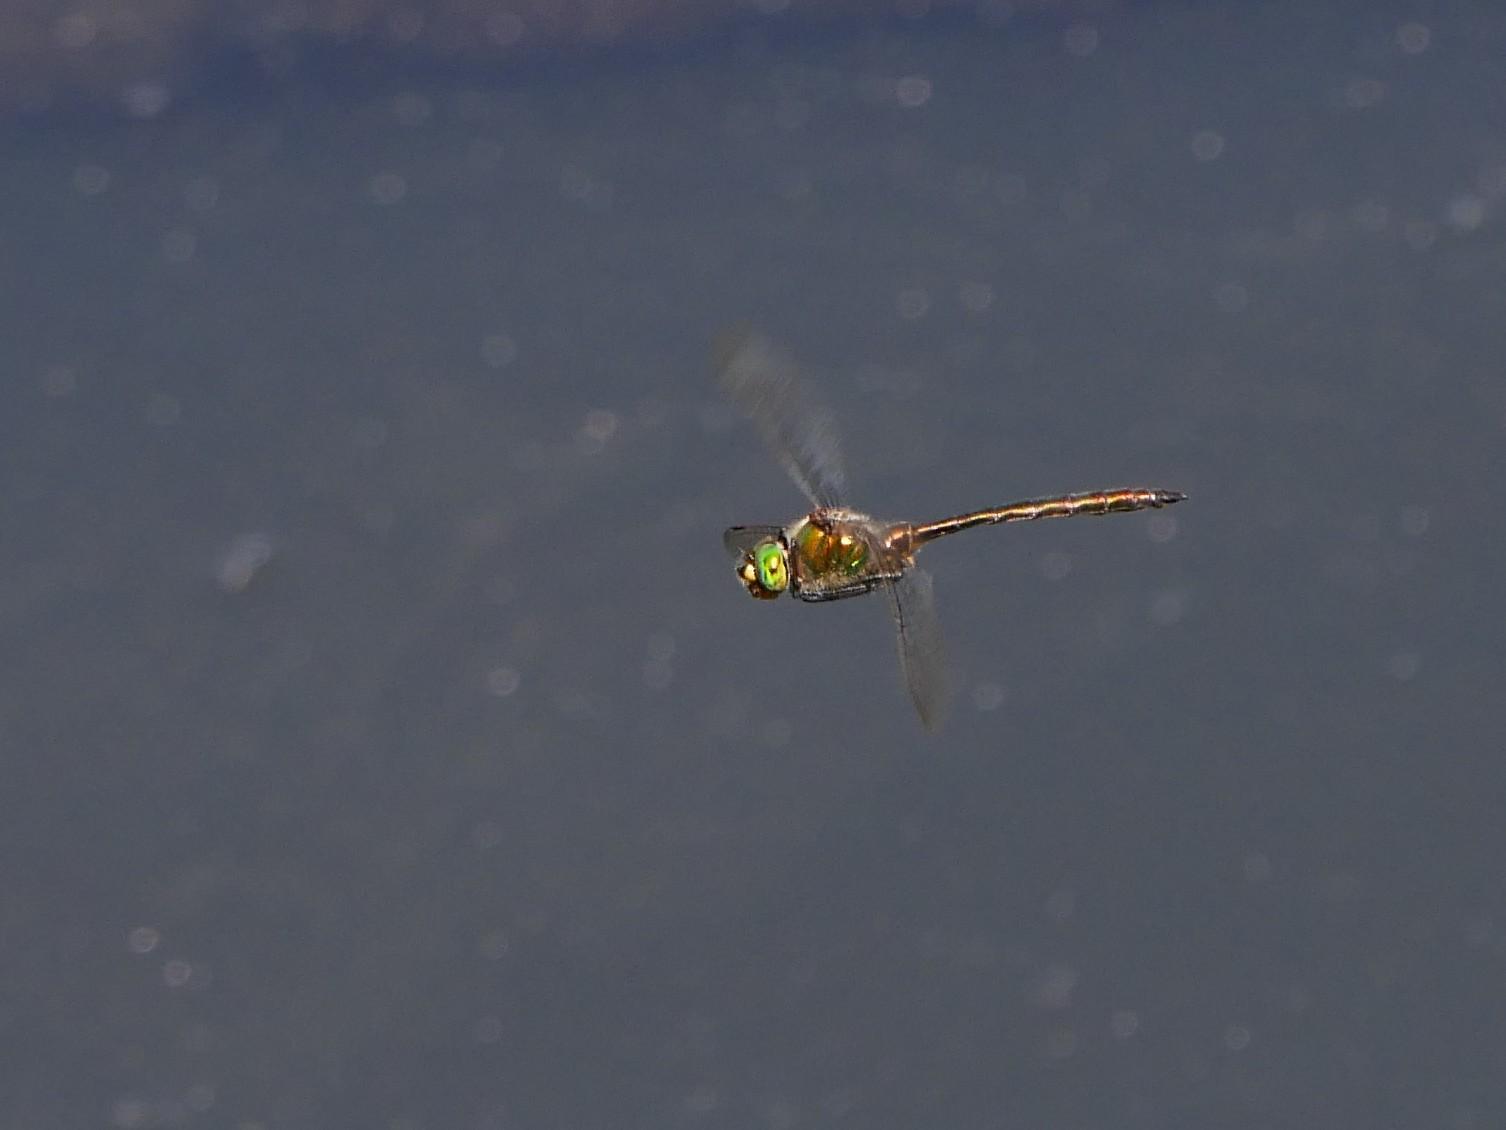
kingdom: Animalia
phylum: Arthropoda
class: Insecta
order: Odonata
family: Corduliidae
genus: Somatochlora
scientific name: Somatochlora metallica
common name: Brilliant emerald
